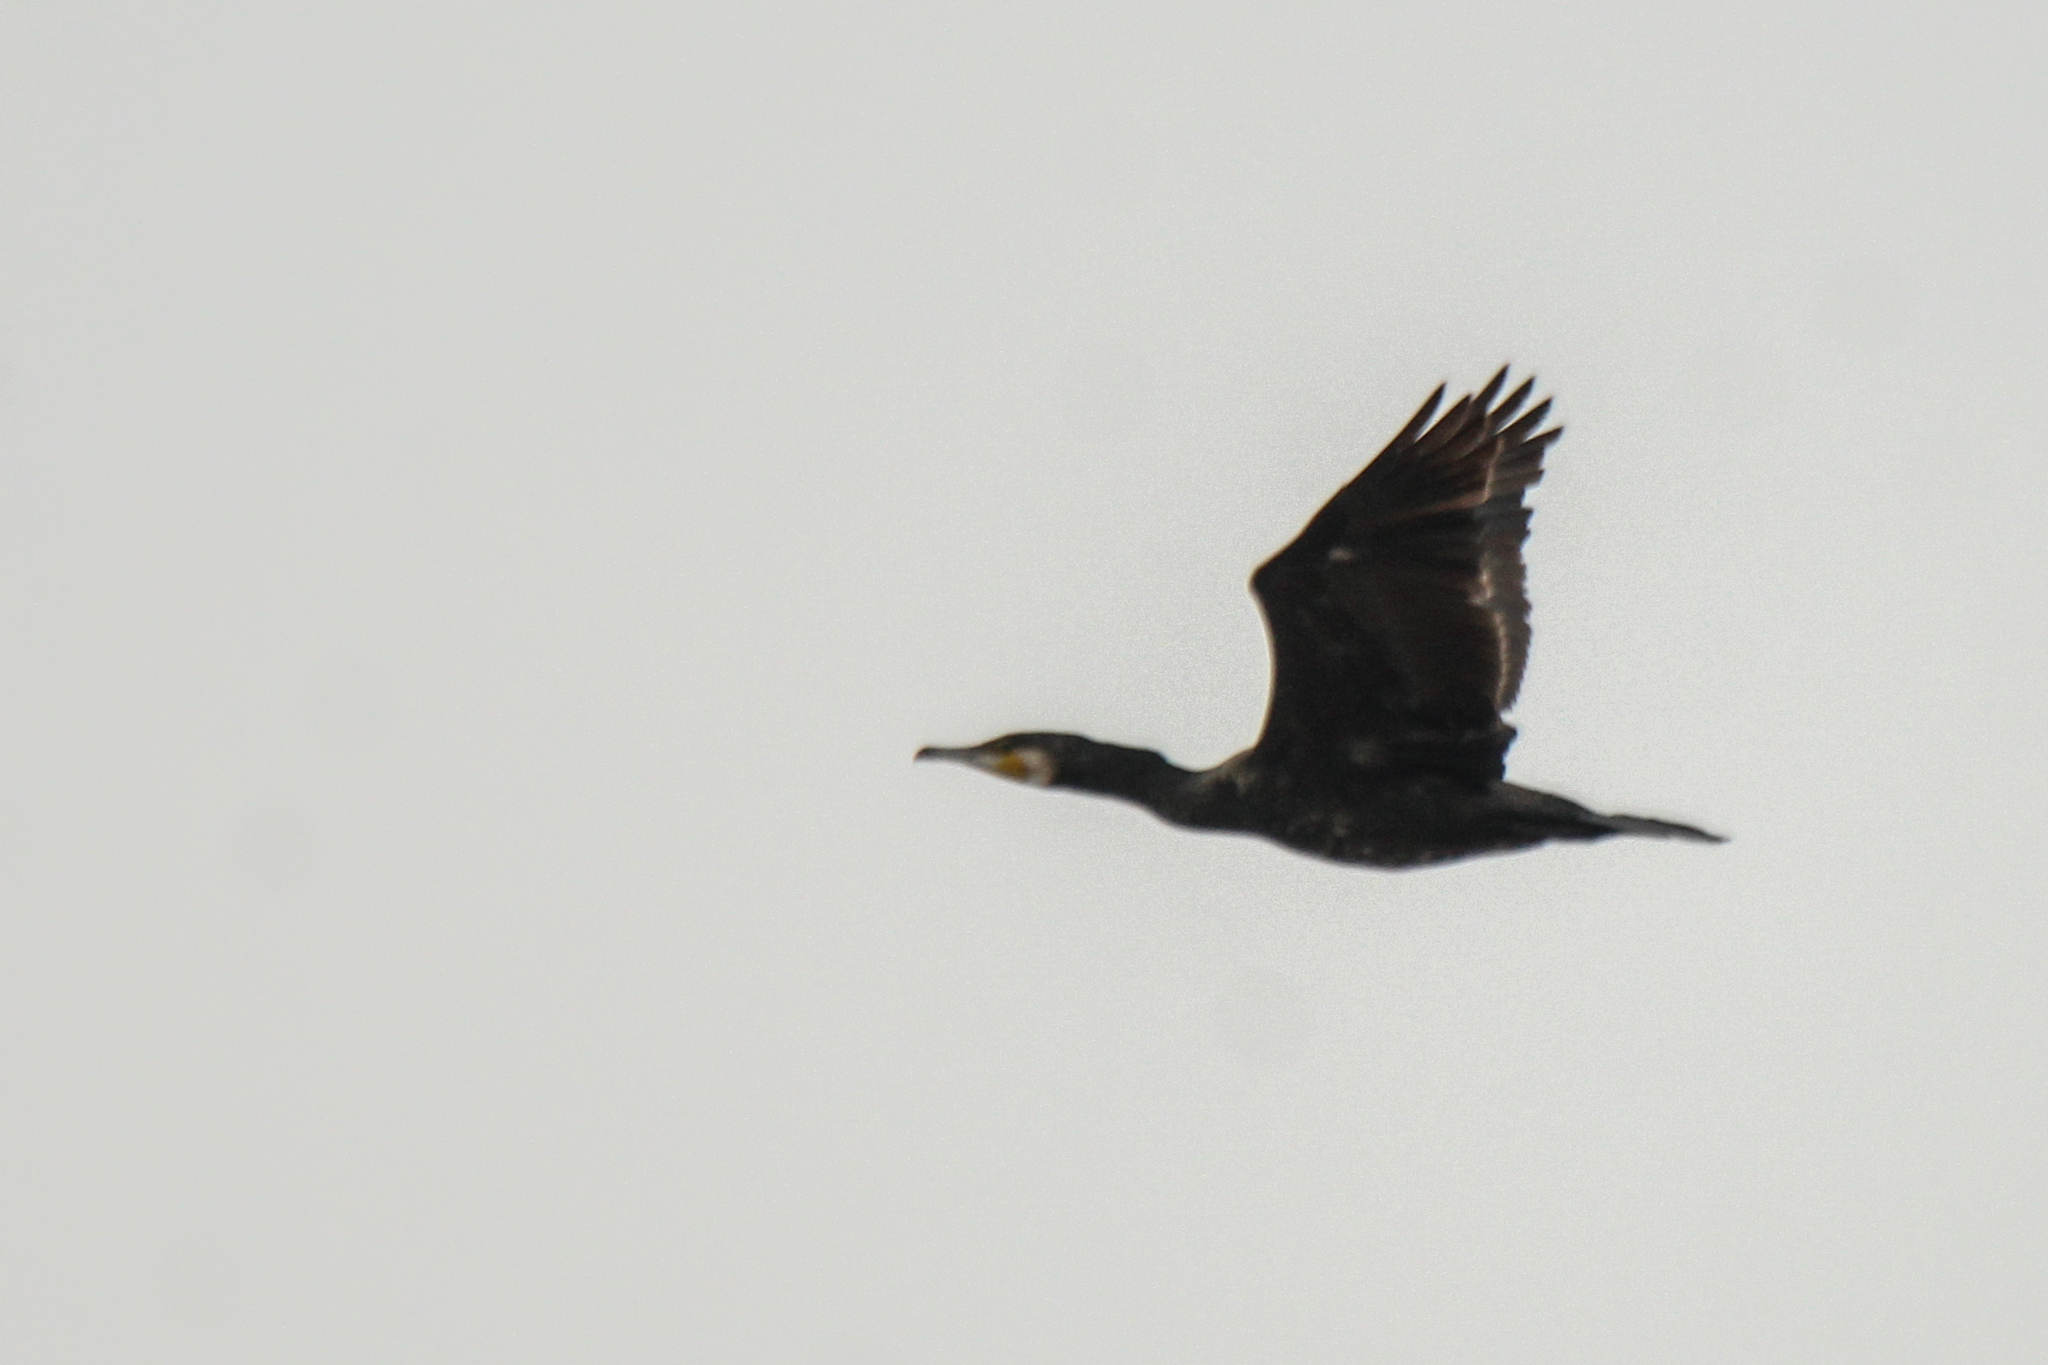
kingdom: Animalia
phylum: Chordata
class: Aves
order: Suliformes
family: Phalacrocoracidae
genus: Phalacrocorax
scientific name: Phalacrocorax carbo
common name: Great cormorant
